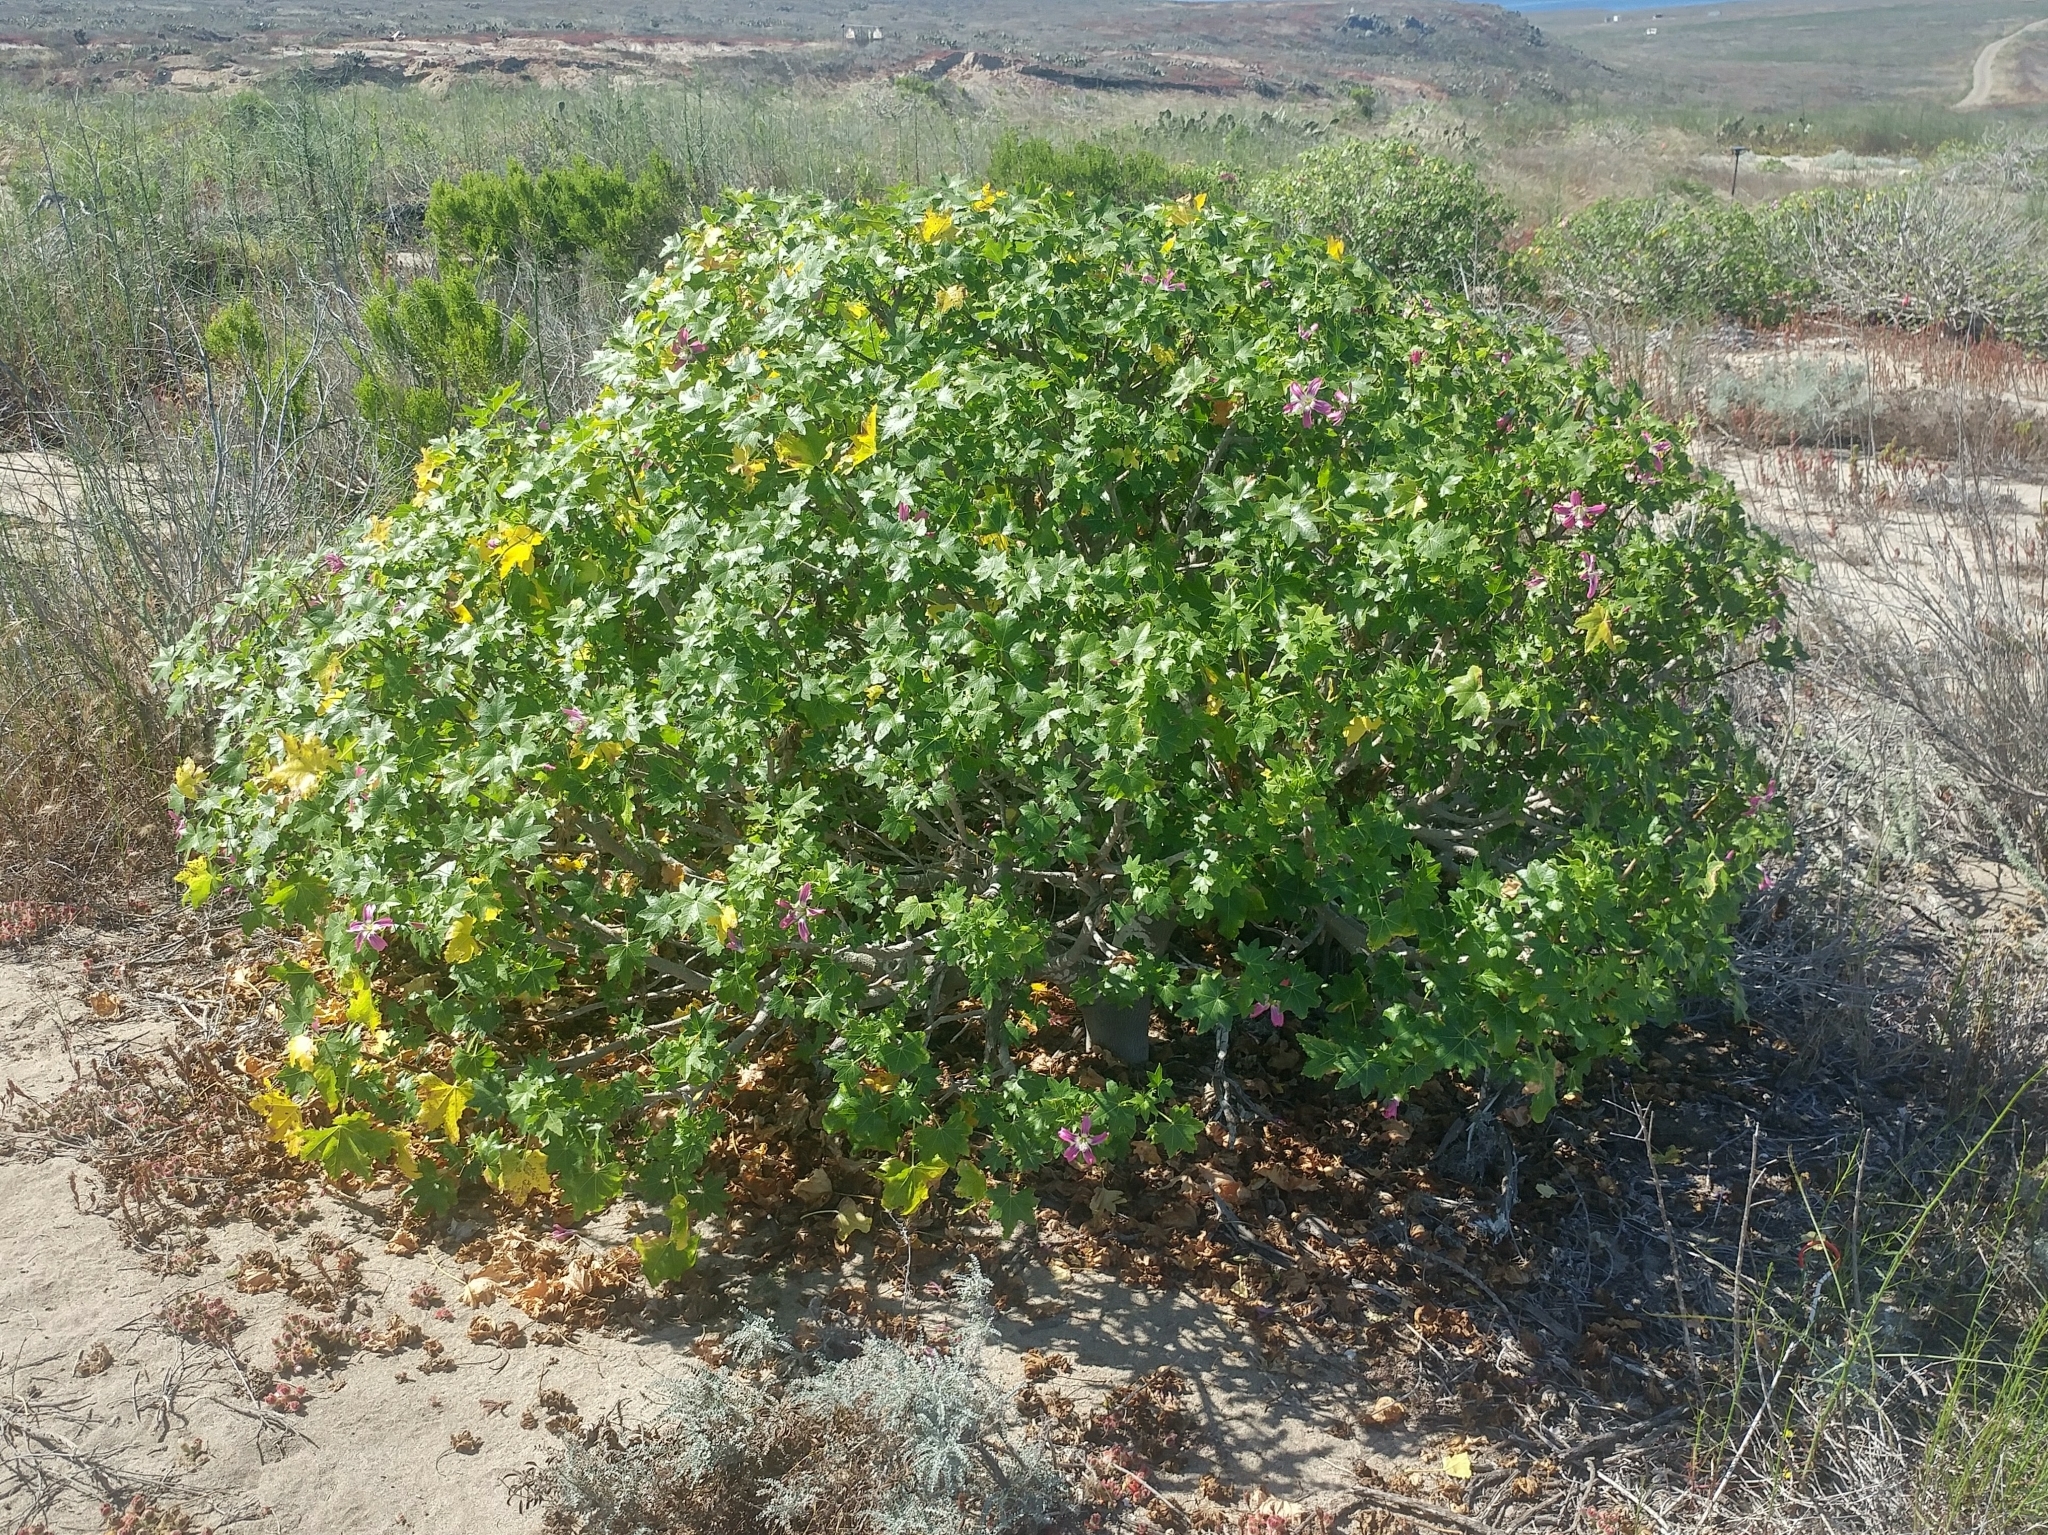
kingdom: Plantae
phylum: Tracheophyta
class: Magnoliopsida
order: Malvales
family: Malvaceae
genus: Malva
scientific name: Malva assurgentiflora
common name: Island mallow
